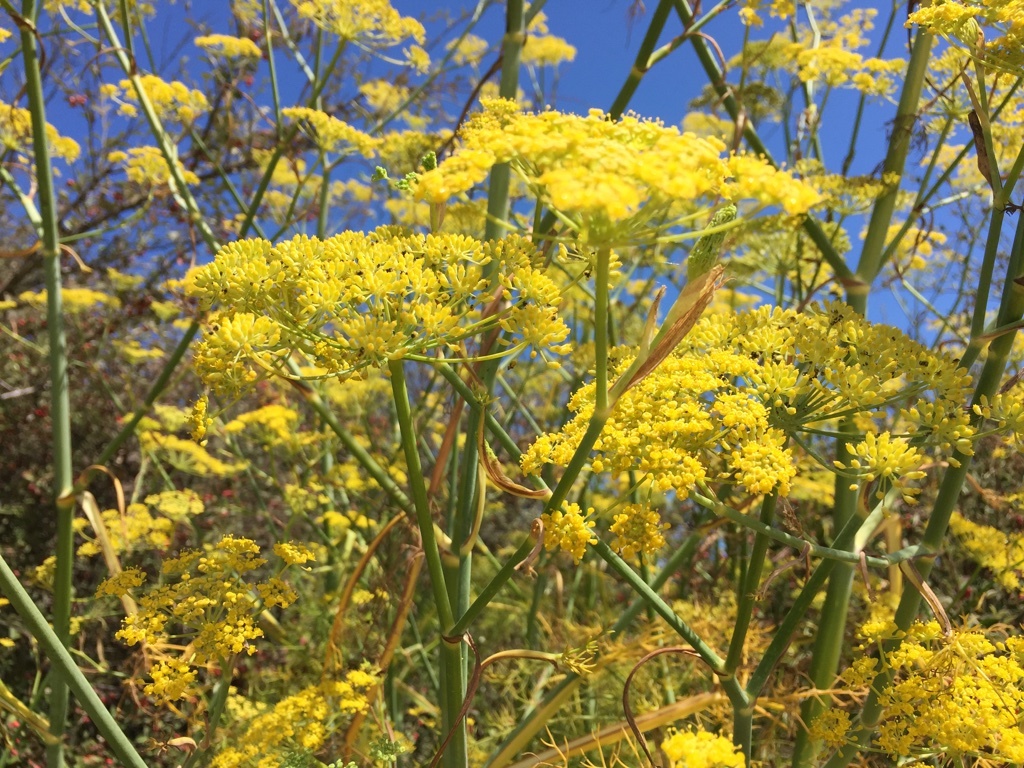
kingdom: Plantae
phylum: Tracheophyta
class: Magnoliopsida
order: Apiales
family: Apiaceae
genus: Foeniculum
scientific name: Foeniculum vulgare
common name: Fennel
